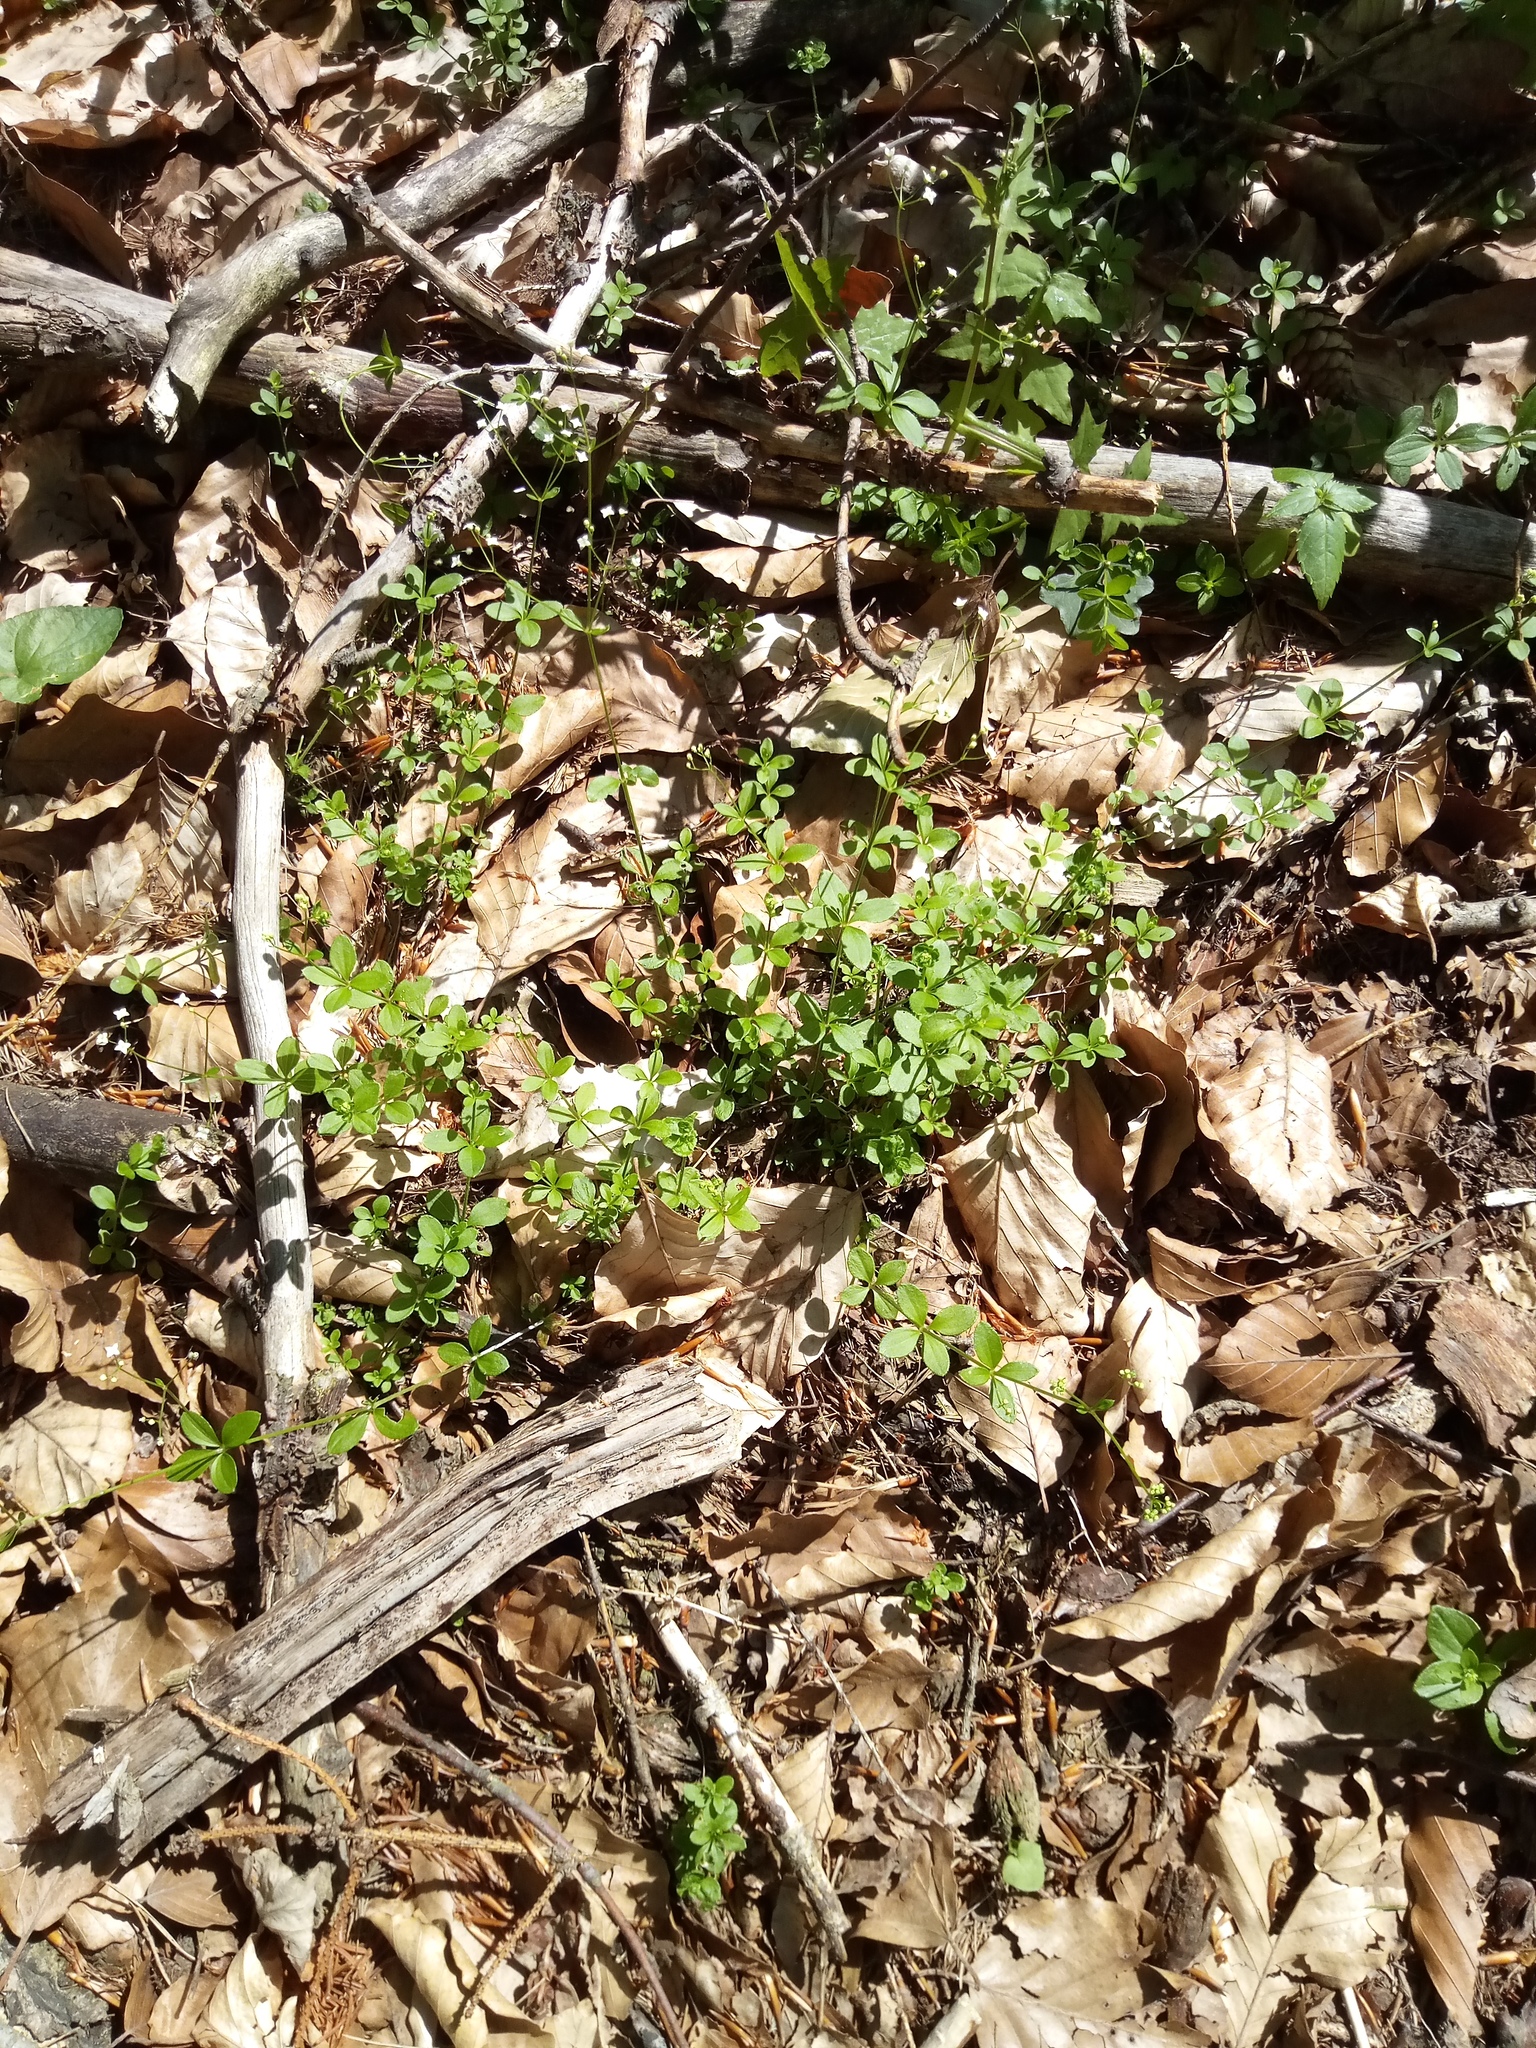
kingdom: Plantae
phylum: Tracheophyta
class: Magnoliopsida
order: Gentianales
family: Rubiaceae
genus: Galium
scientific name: Galium rotundifolium
